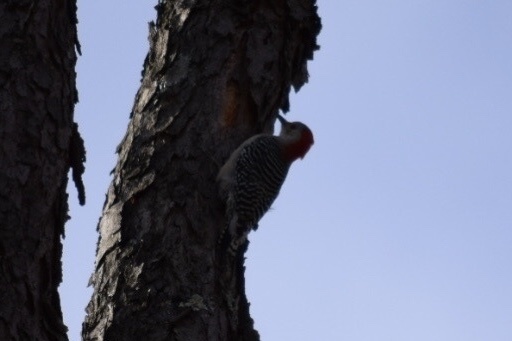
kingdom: Animalia
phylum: Chordata
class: Aves
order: Piciformes
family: Picidae
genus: Melanerpes
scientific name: Melanerpes carolinus
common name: Red-bellied woodpecker
